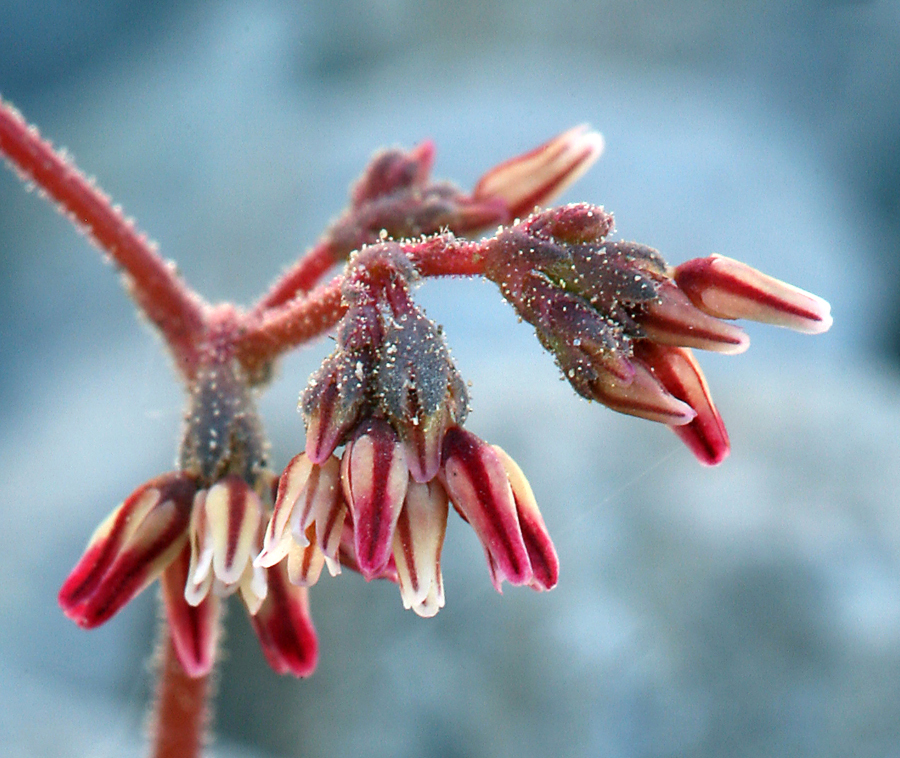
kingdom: Plantae
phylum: Tracheophyta
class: Magnoliopsida
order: Caryophyllales
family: Polygonaceae
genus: Eriogonum
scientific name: Eriogonum eremicola
